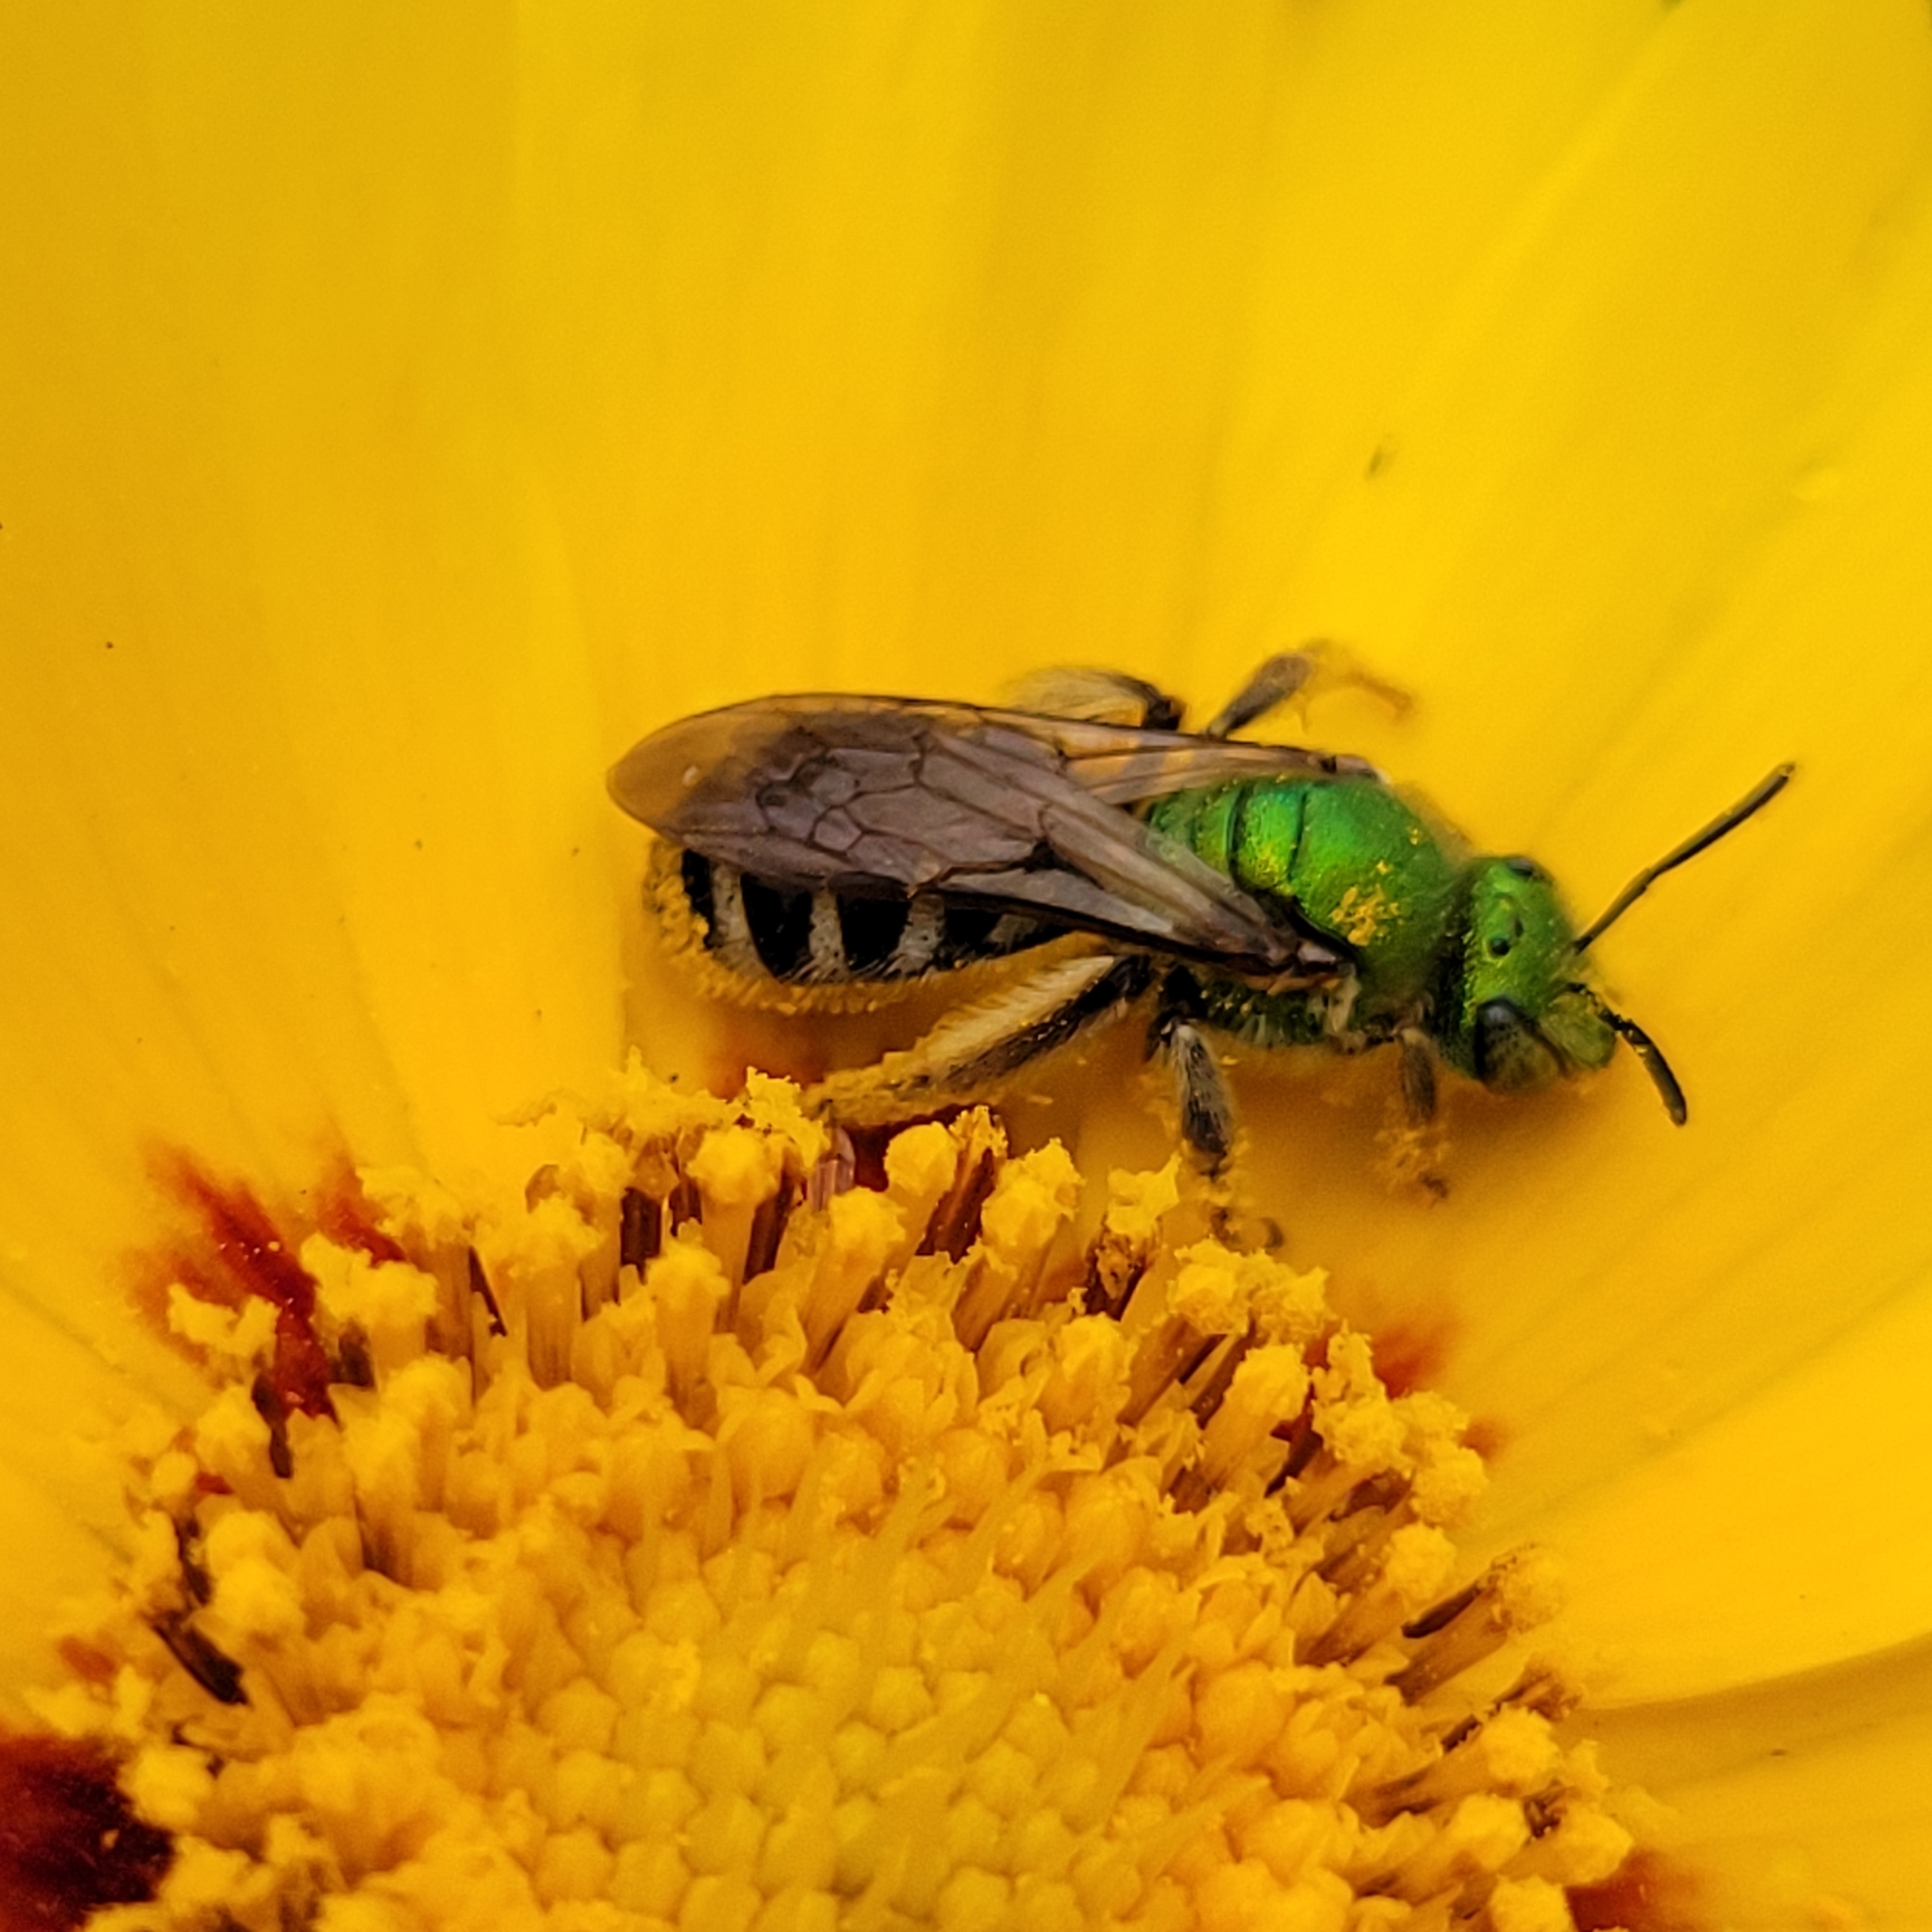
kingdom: Animalia
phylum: Arthropoda
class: Insecta
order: Hymenoptera
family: Halictidae
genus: Agapostemon
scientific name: Agapostemon virescens
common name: Bicolored striped sweat bee
